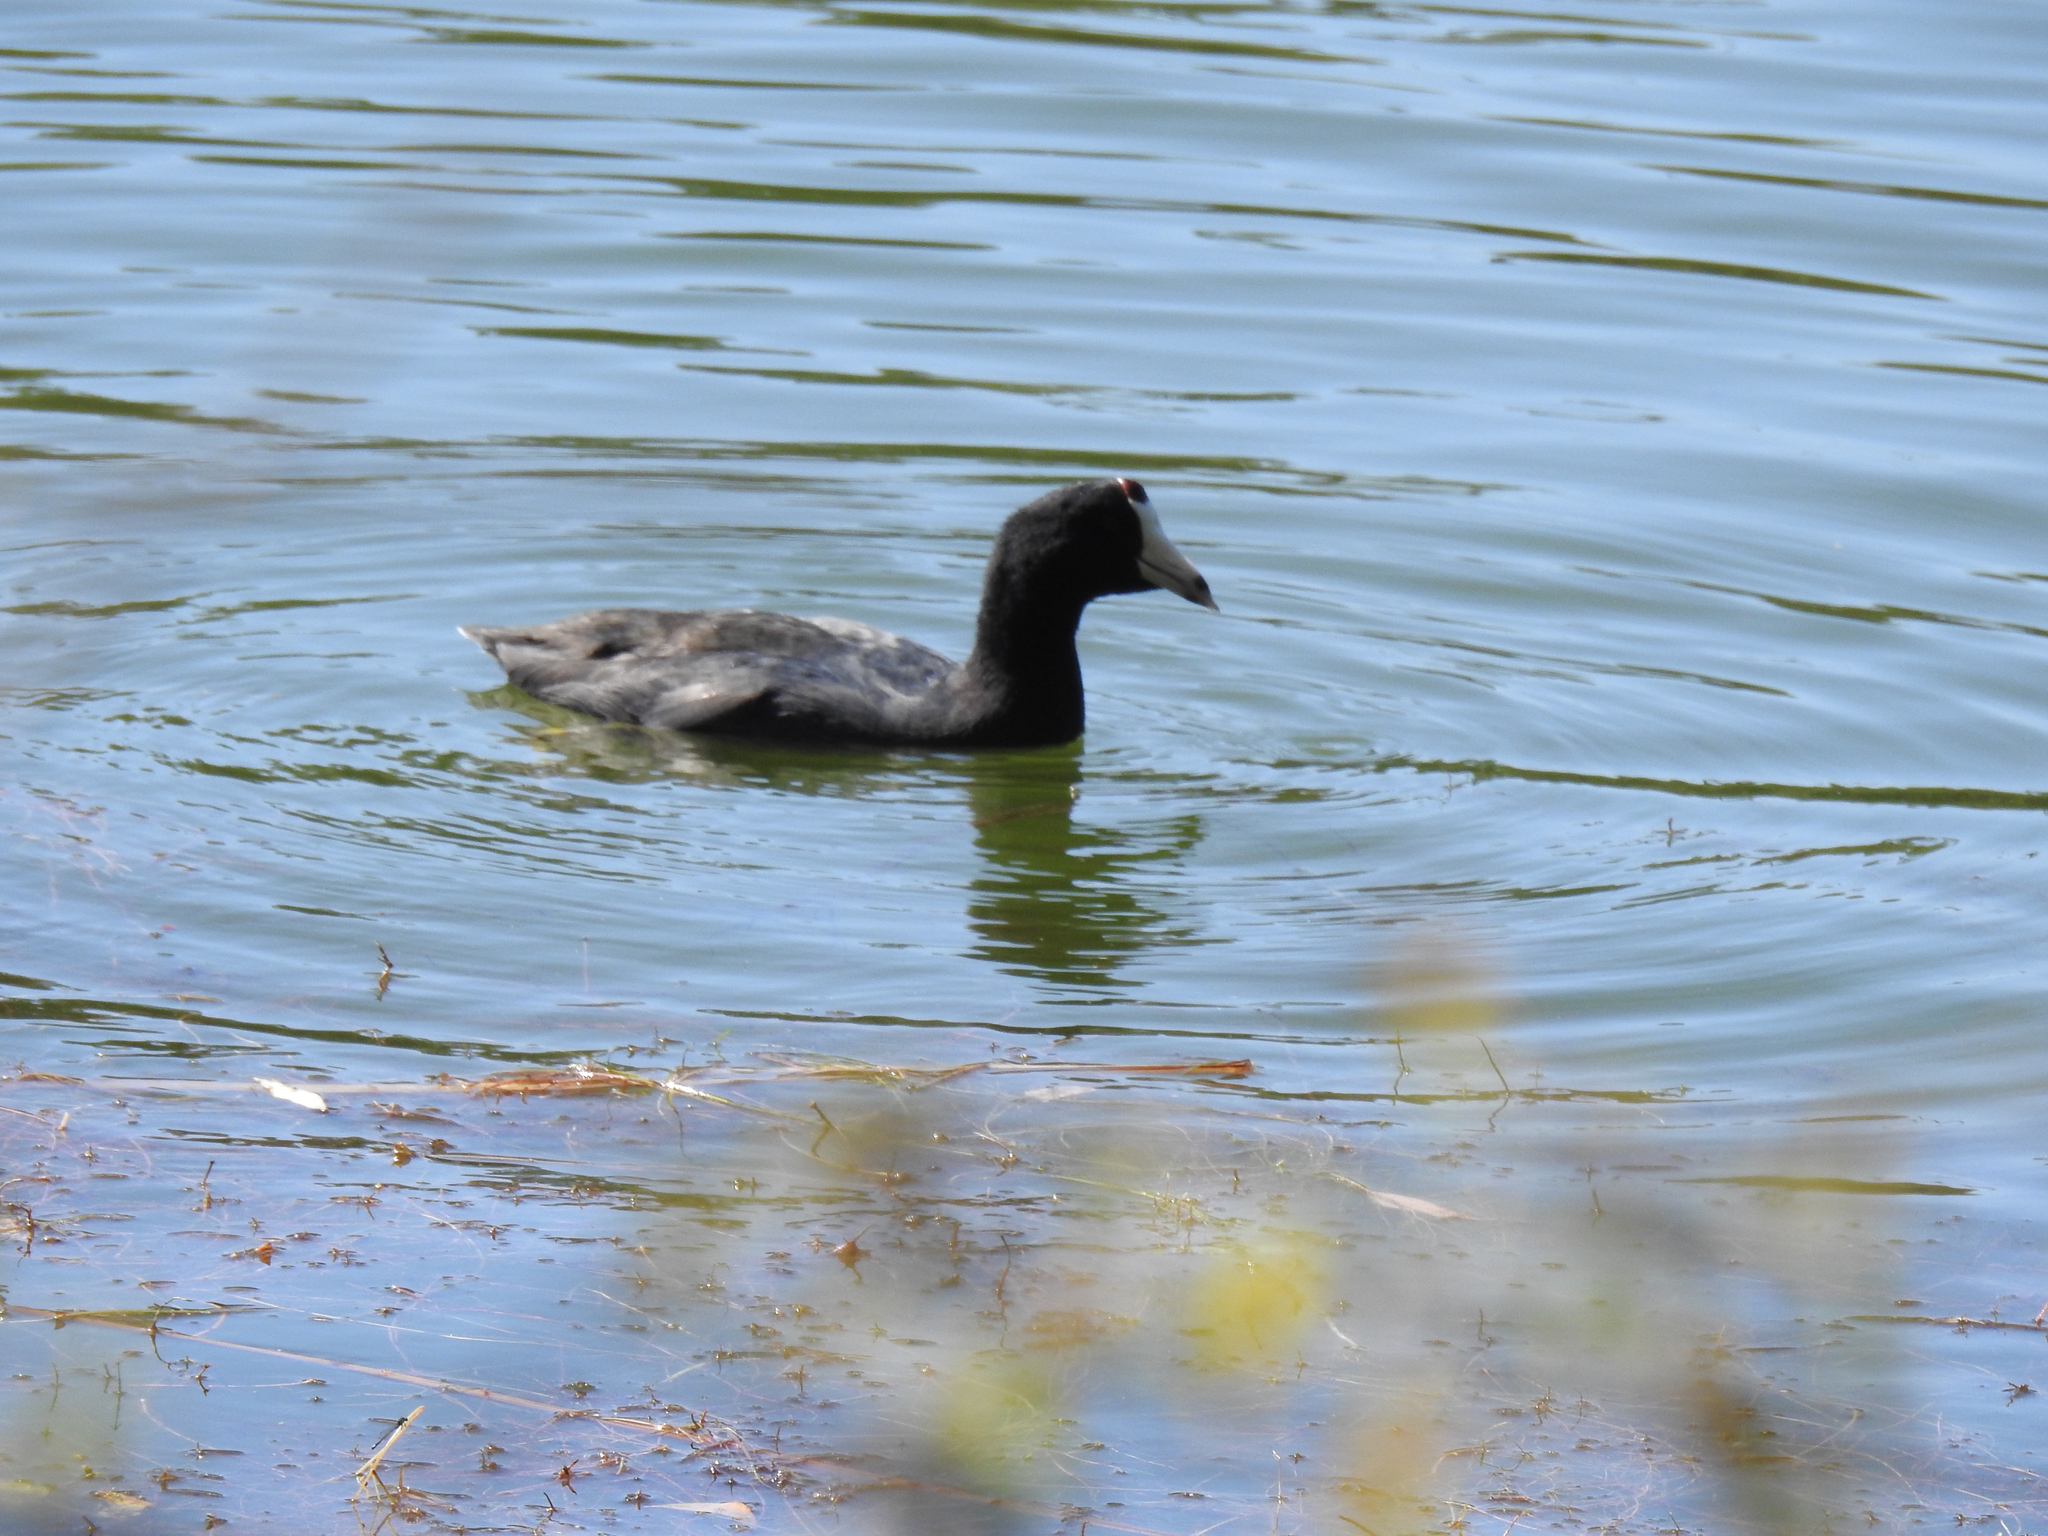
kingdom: Animalia
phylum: Chordata
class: Aves
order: Gruiformes
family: Rallidae
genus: Fulica
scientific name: Fulica americana
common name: American coot
